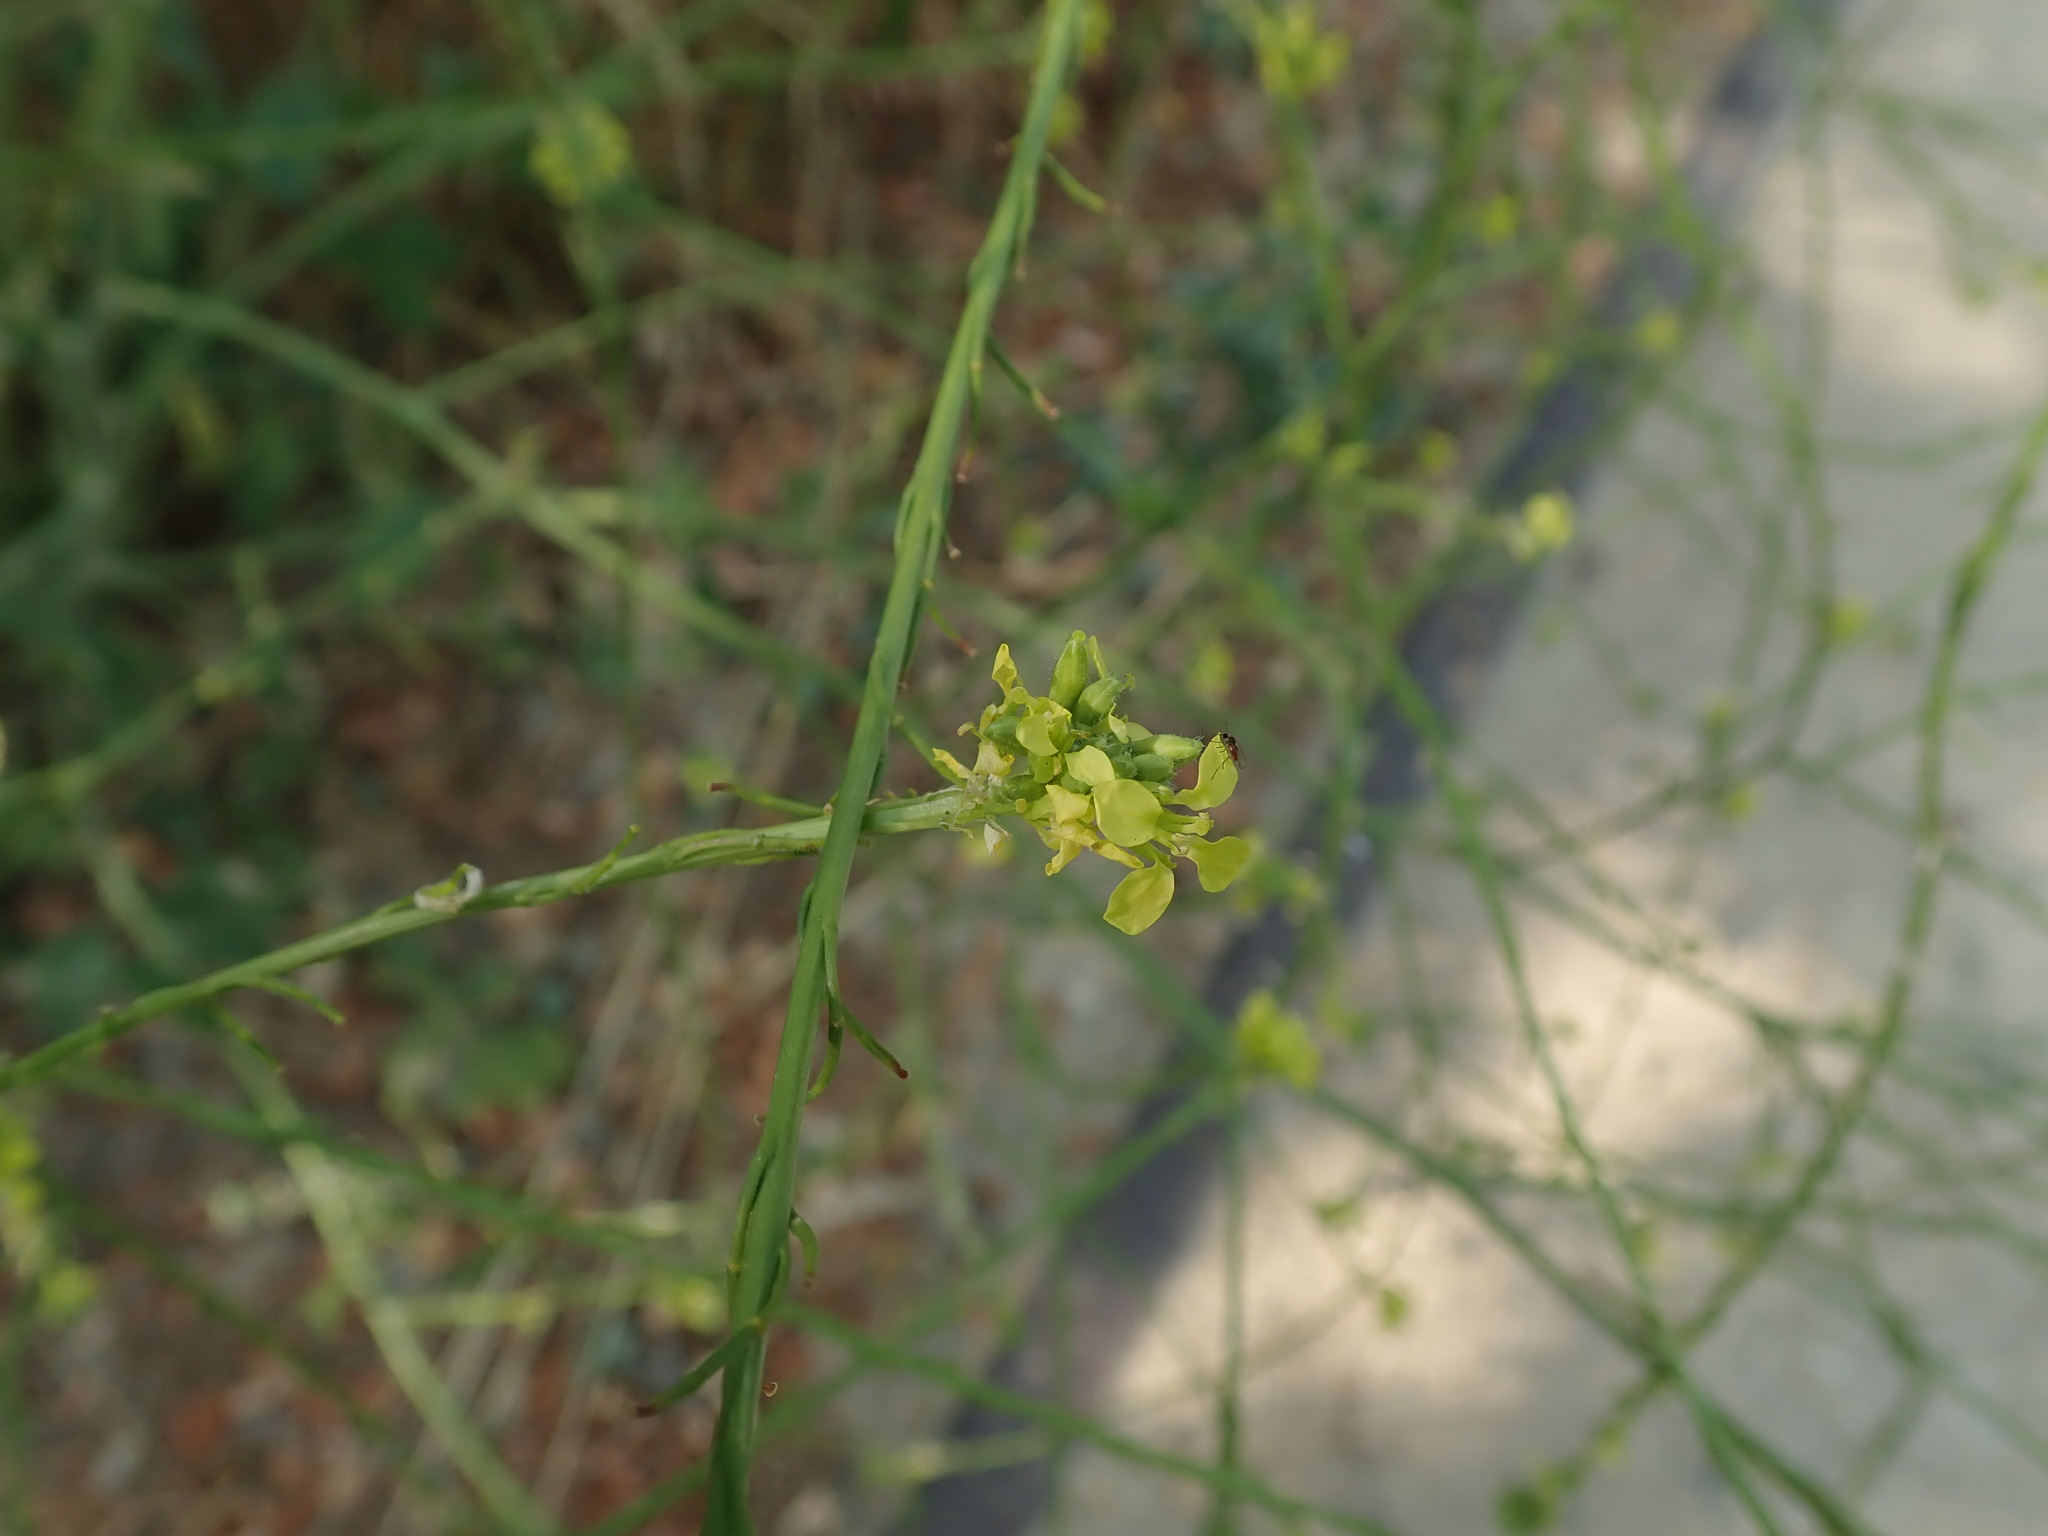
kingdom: Plantae
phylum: Tracheophyta
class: Magnoliopsida
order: Brassicales
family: Brassicaceae
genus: Hirschfeldia
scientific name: Hirschfeldia incana
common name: Hoary mustard
